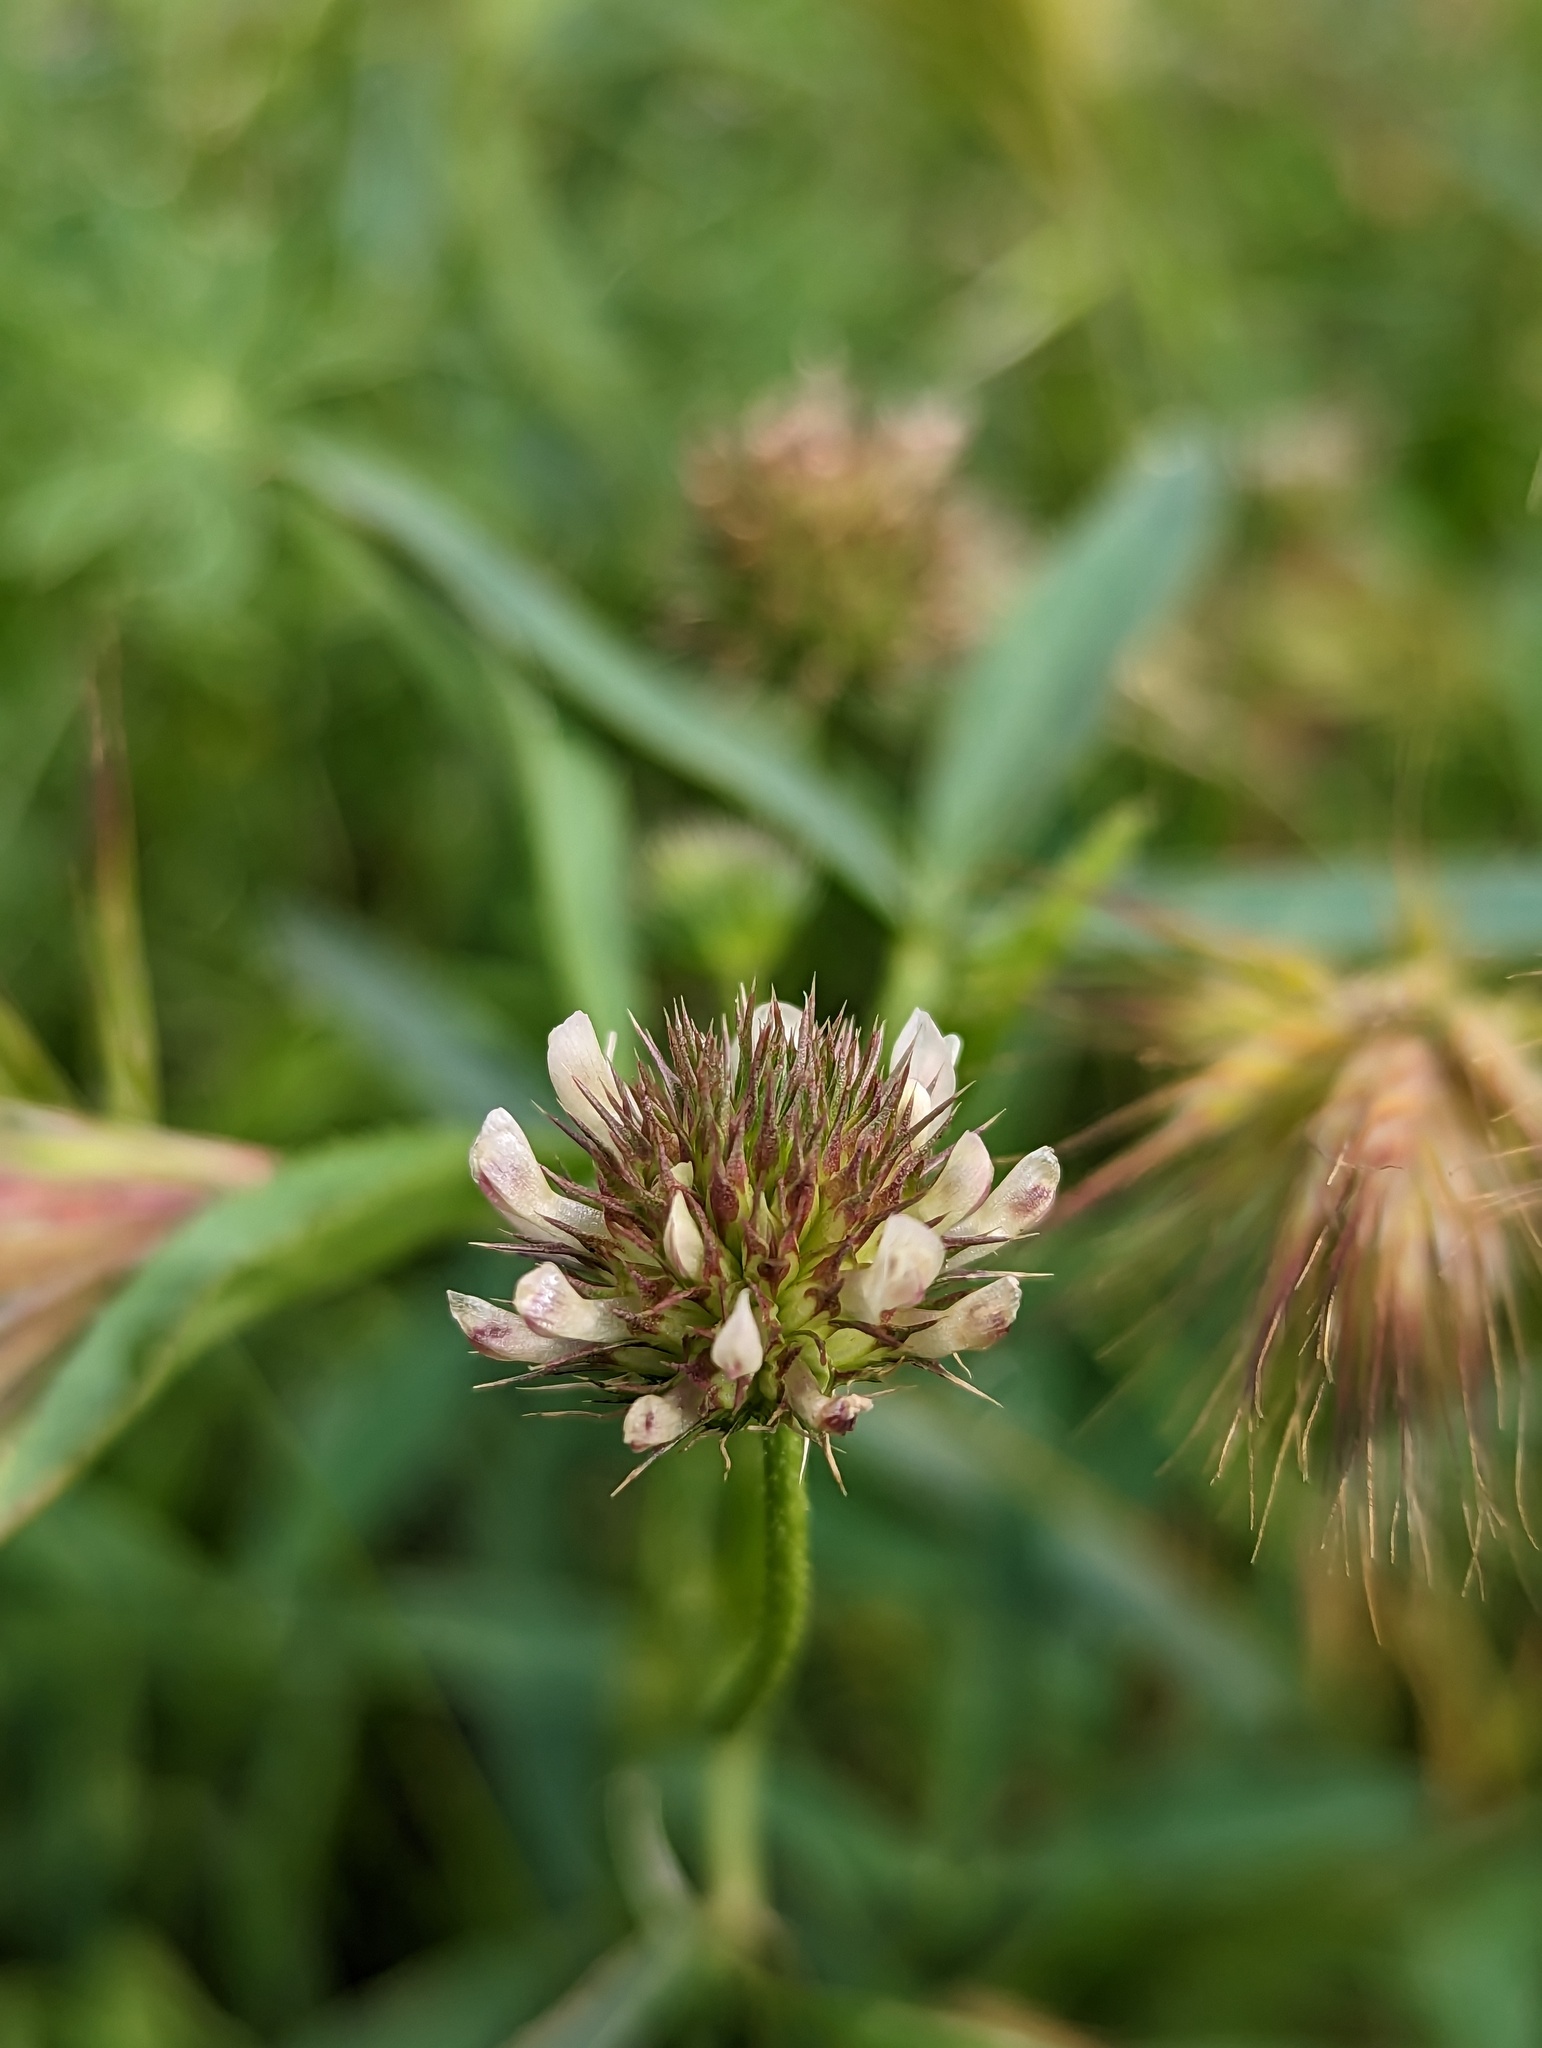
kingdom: Plantae
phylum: Tracheophyta
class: Magnoliopsida
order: Fabales
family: Fabaceae
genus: Trifolium
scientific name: Trifolium willdenovii
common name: Tomcat clover
